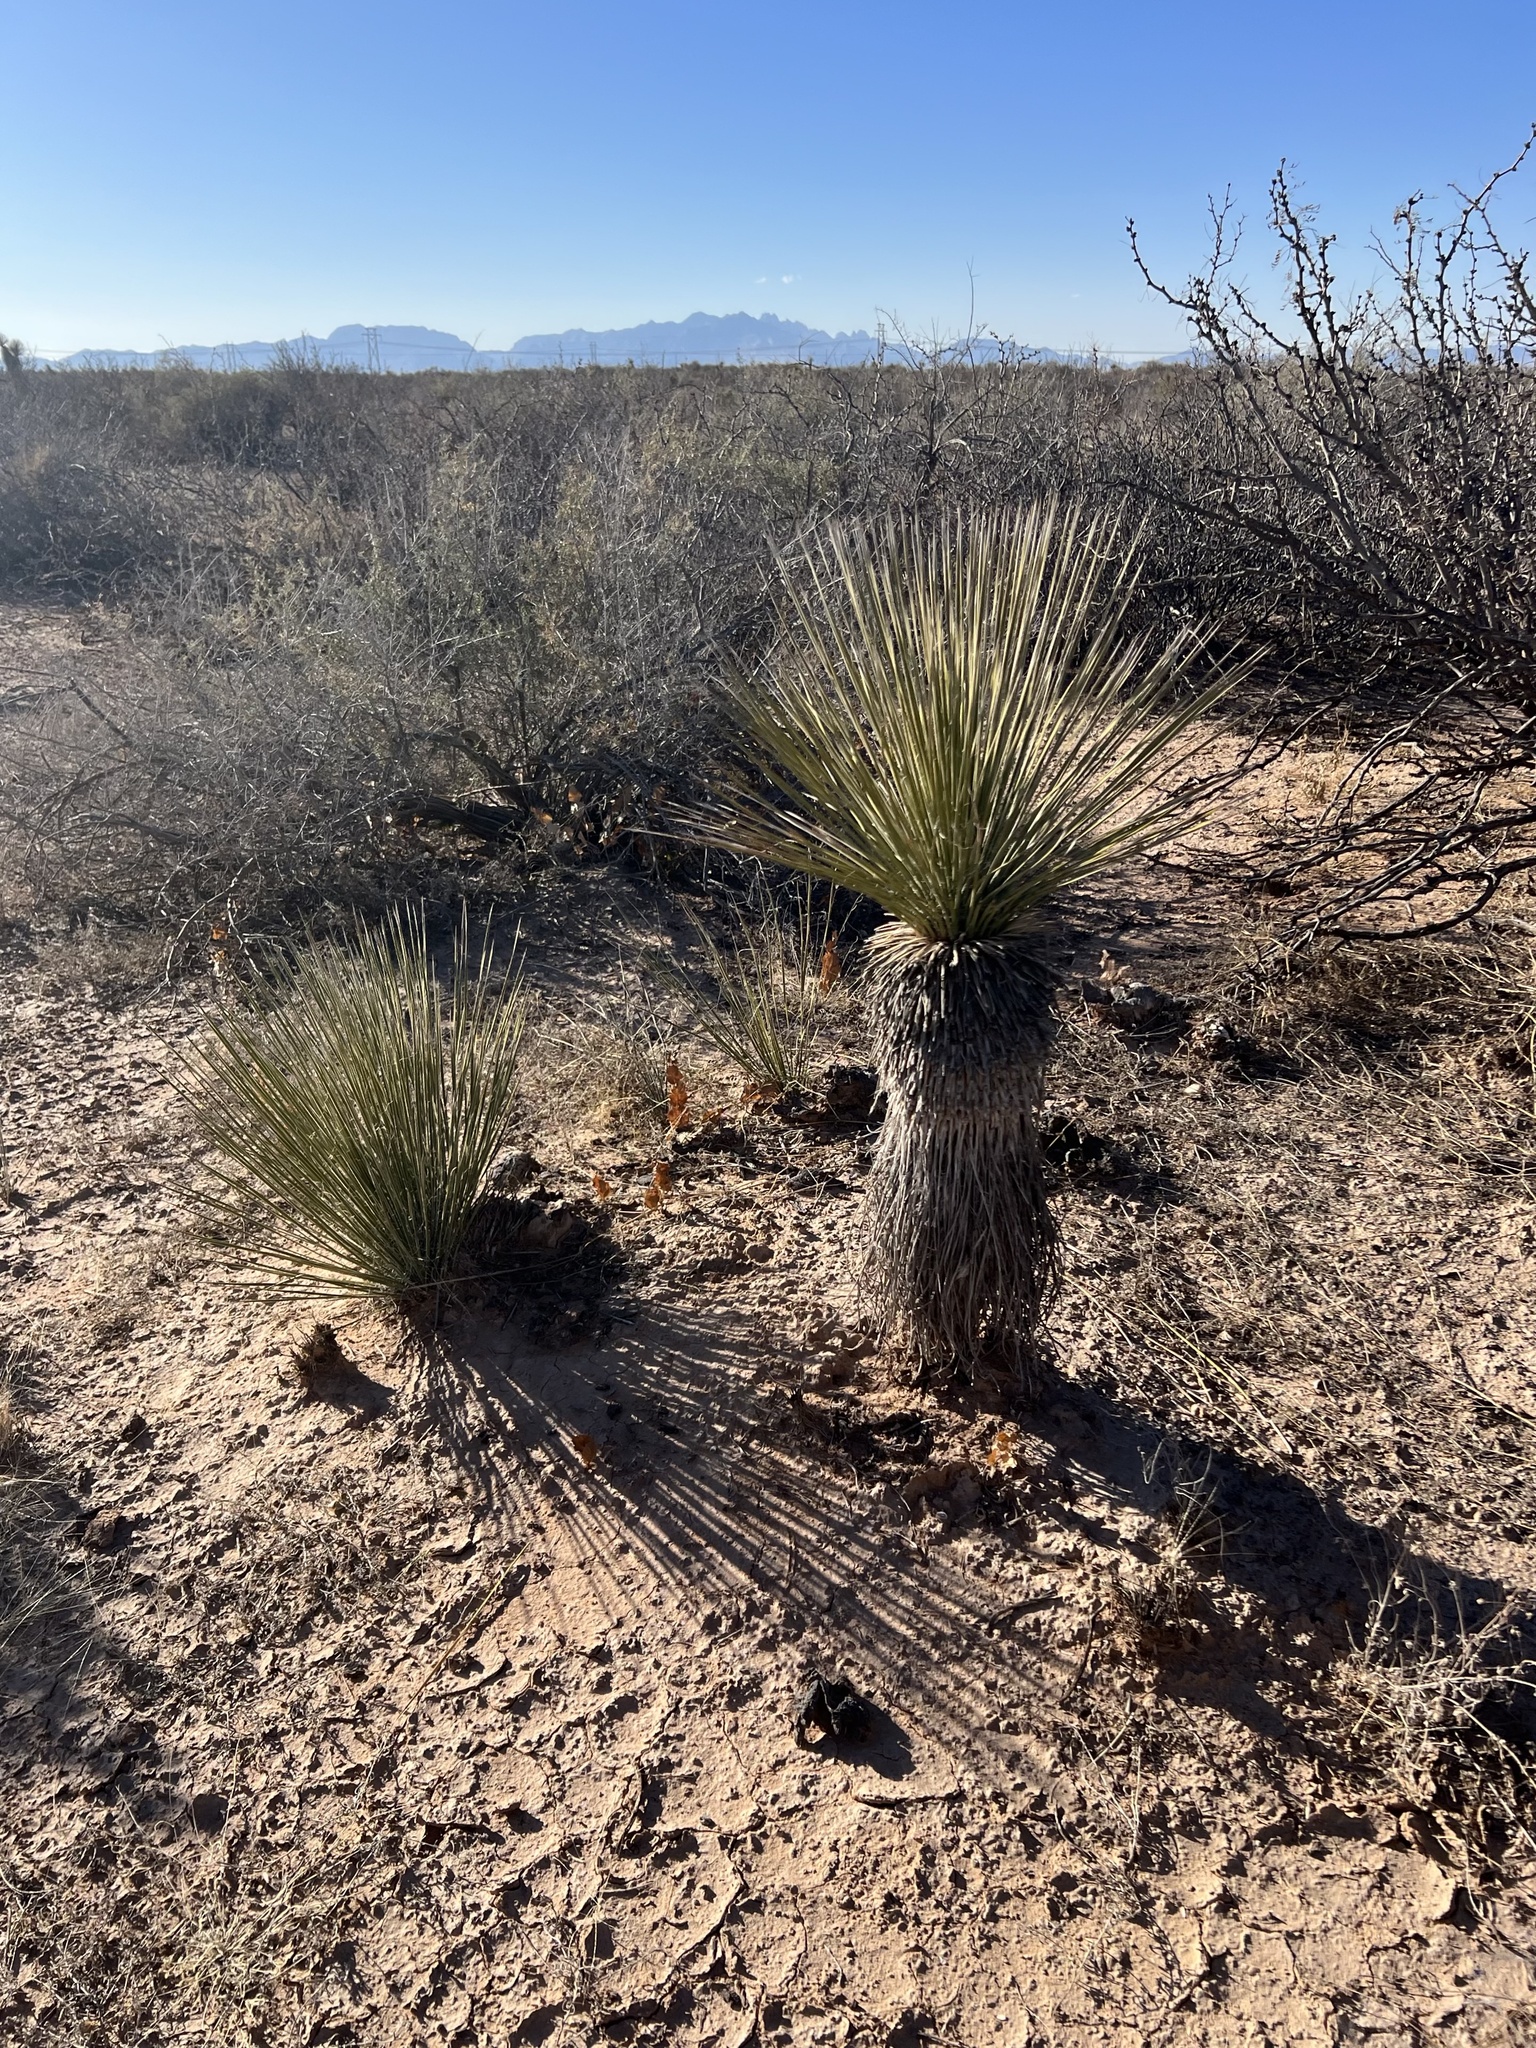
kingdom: Plantae
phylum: Tracheophyta
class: Liliopsida
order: Asparagales
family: Asparagaceae
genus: Yucca
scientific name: Yucca elata
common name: Palmella
